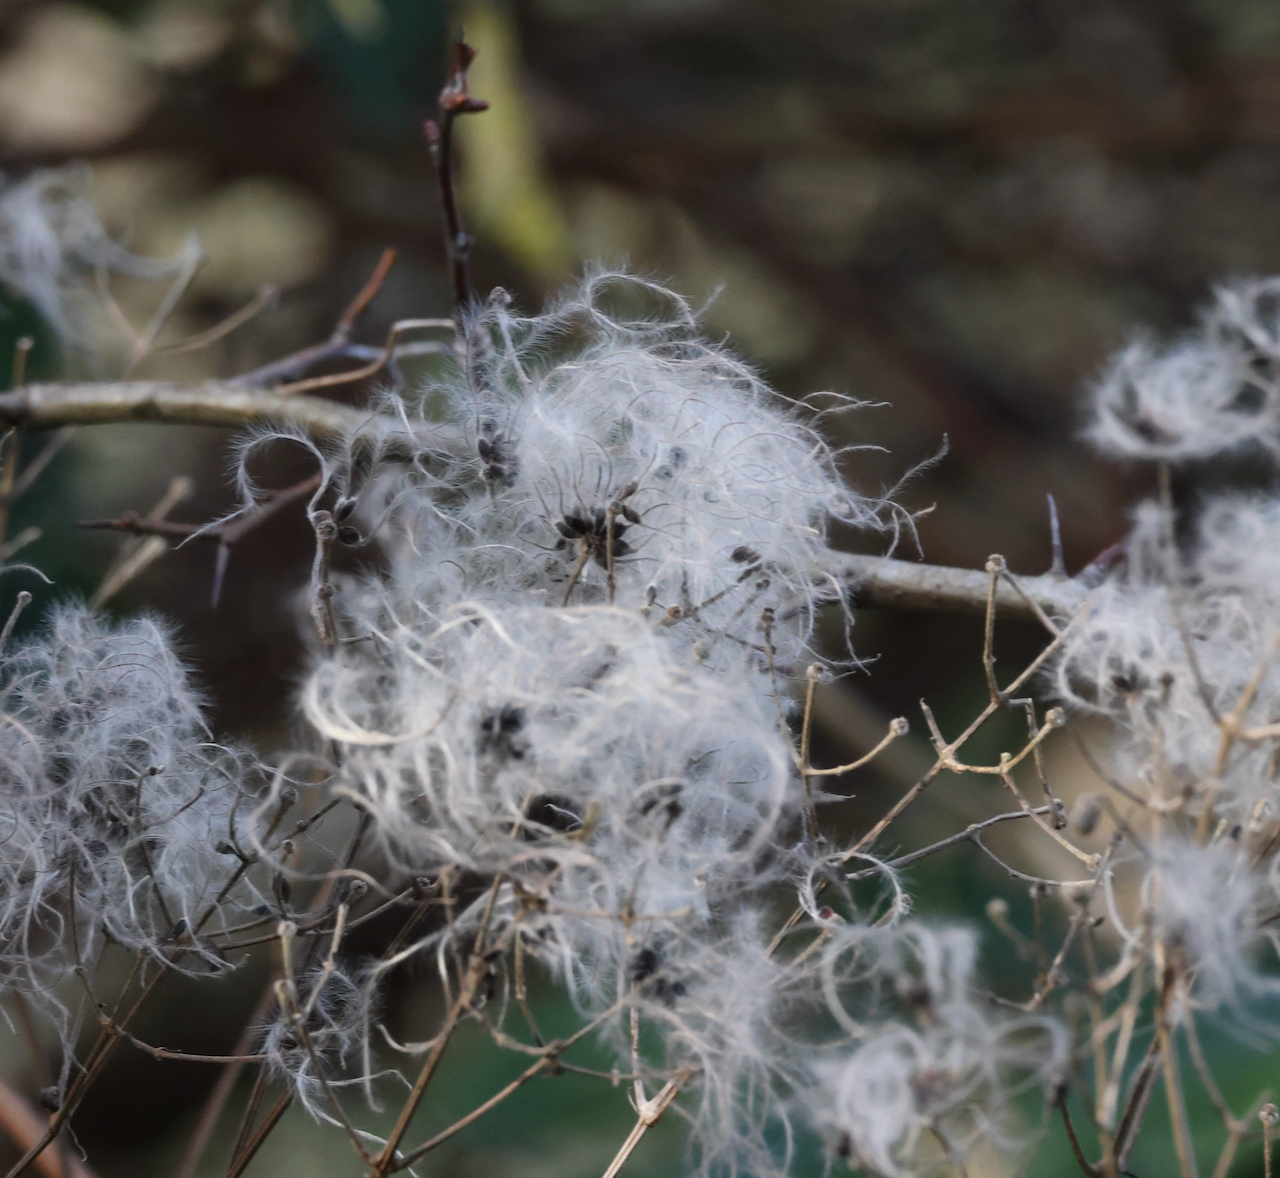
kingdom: Plantae
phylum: Tracheophyta
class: Magnoliopsida
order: Ranunculales
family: Ranunculaceae
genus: Clematis
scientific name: Clematis vitalba
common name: Evergreen clematis
